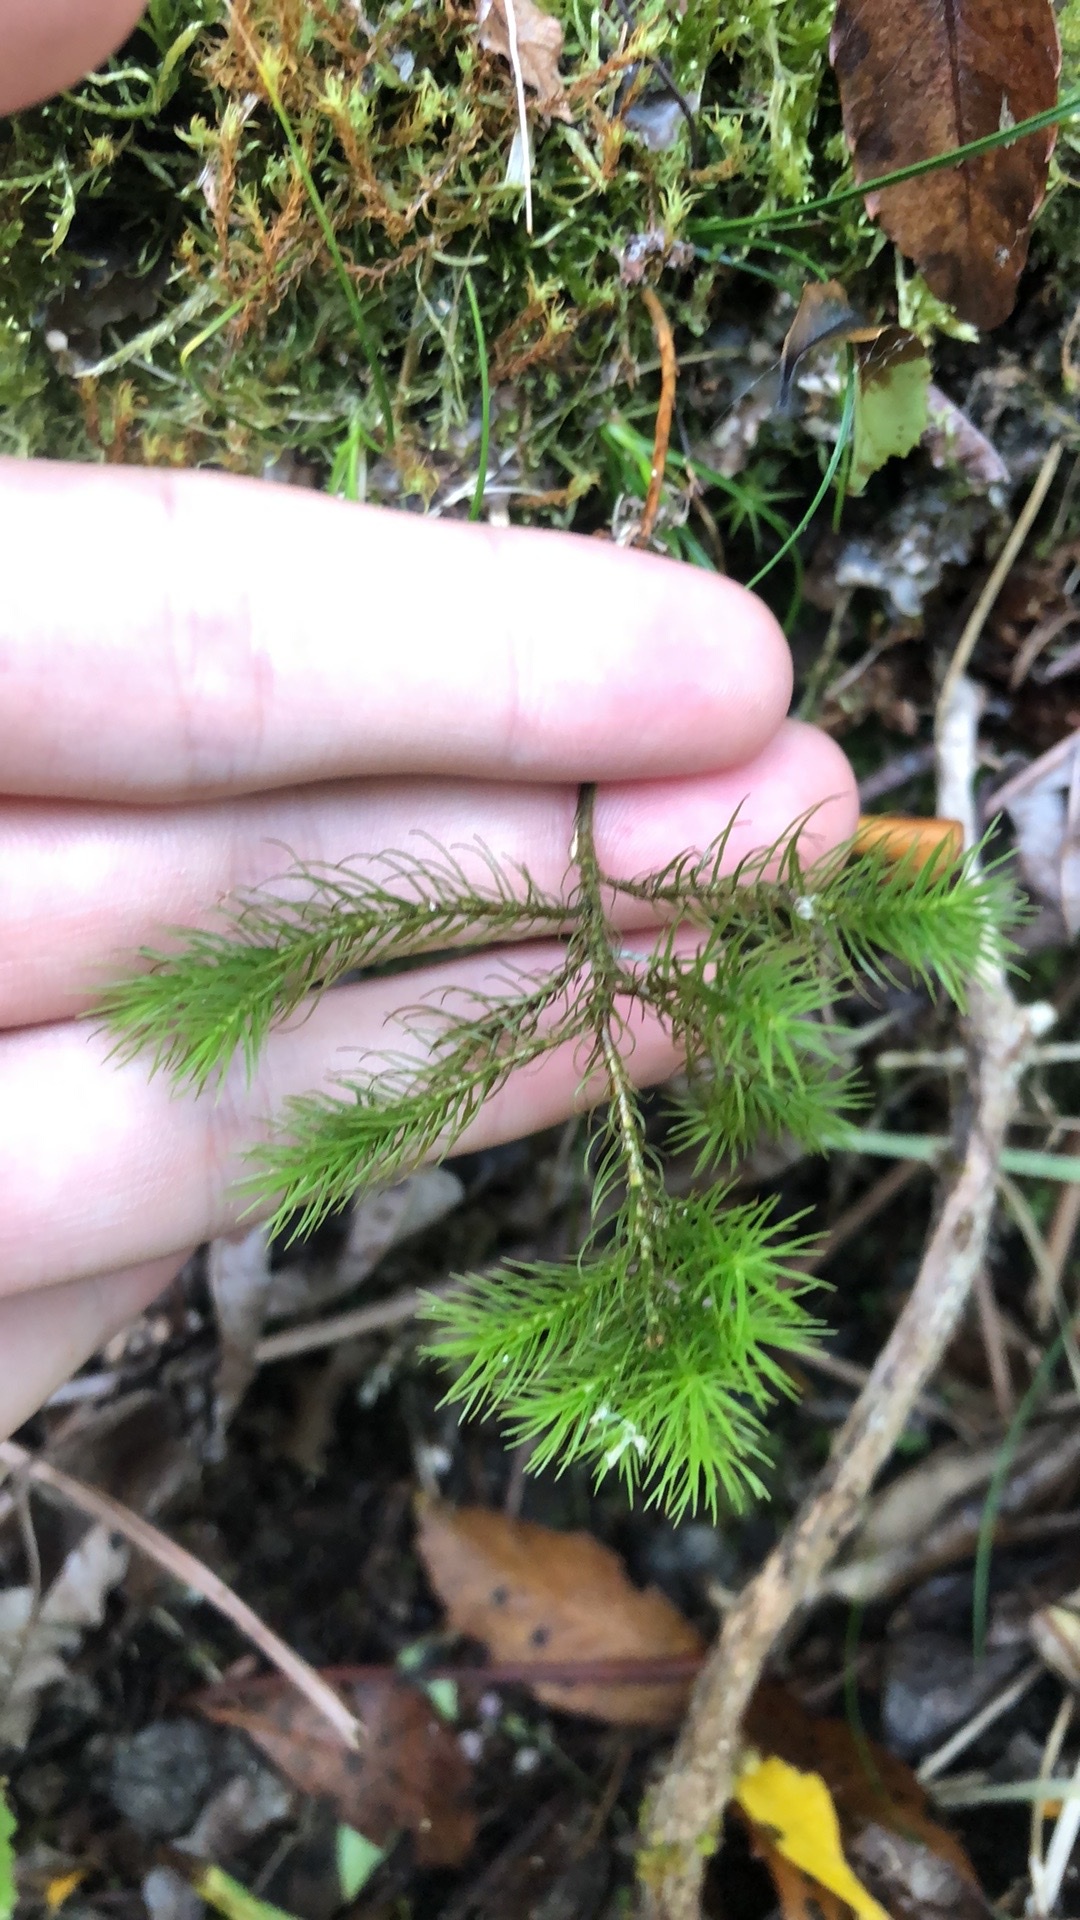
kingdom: Plantae
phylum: Bryophyta
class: Polytrichopsida
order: Polytrichales
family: Polytrichaceae
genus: Dendroligotrichum
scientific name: Dendroligotrichum tongariroense
